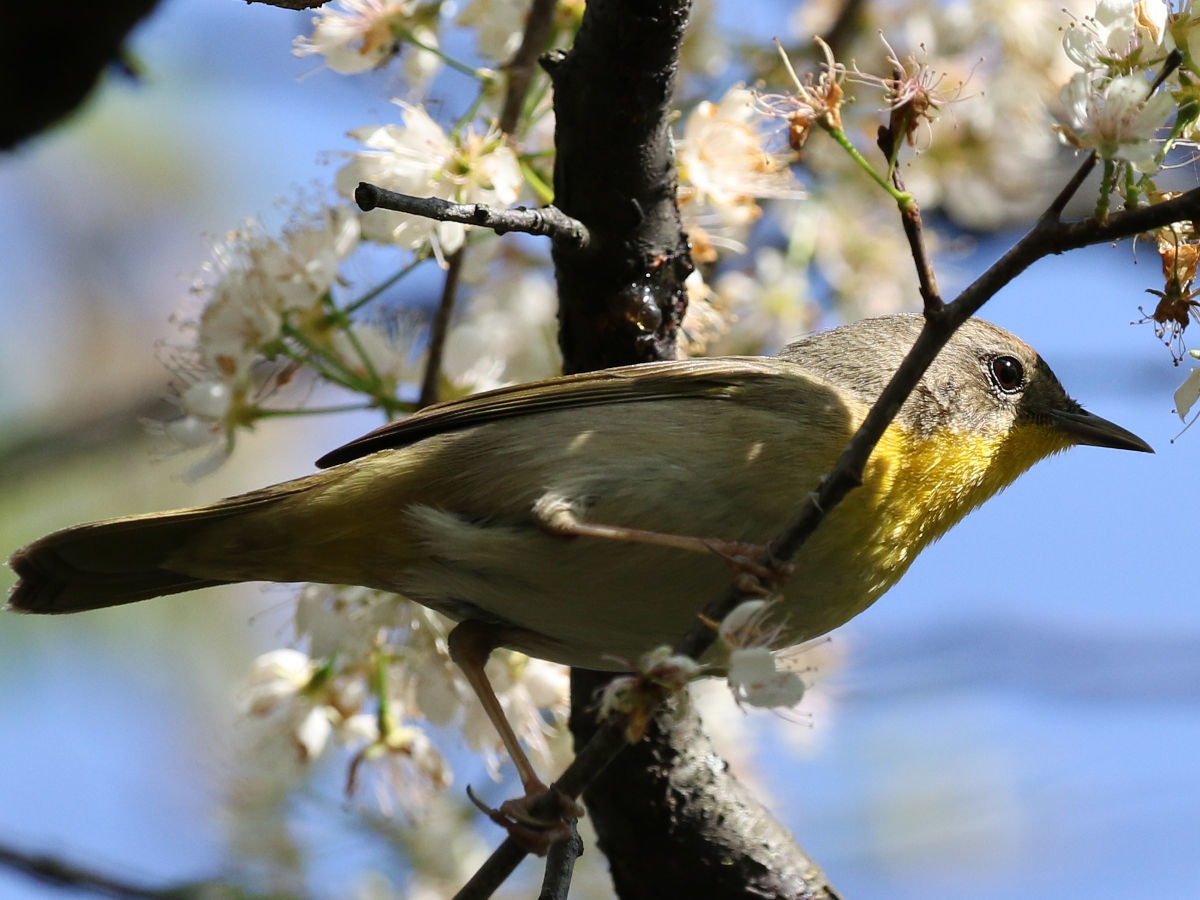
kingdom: Animalia
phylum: Chordata
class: Aves
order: Passeriformes
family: Parulidae
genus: Geothlypis
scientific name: Geothlypis trichas
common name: Common yellowthroat
